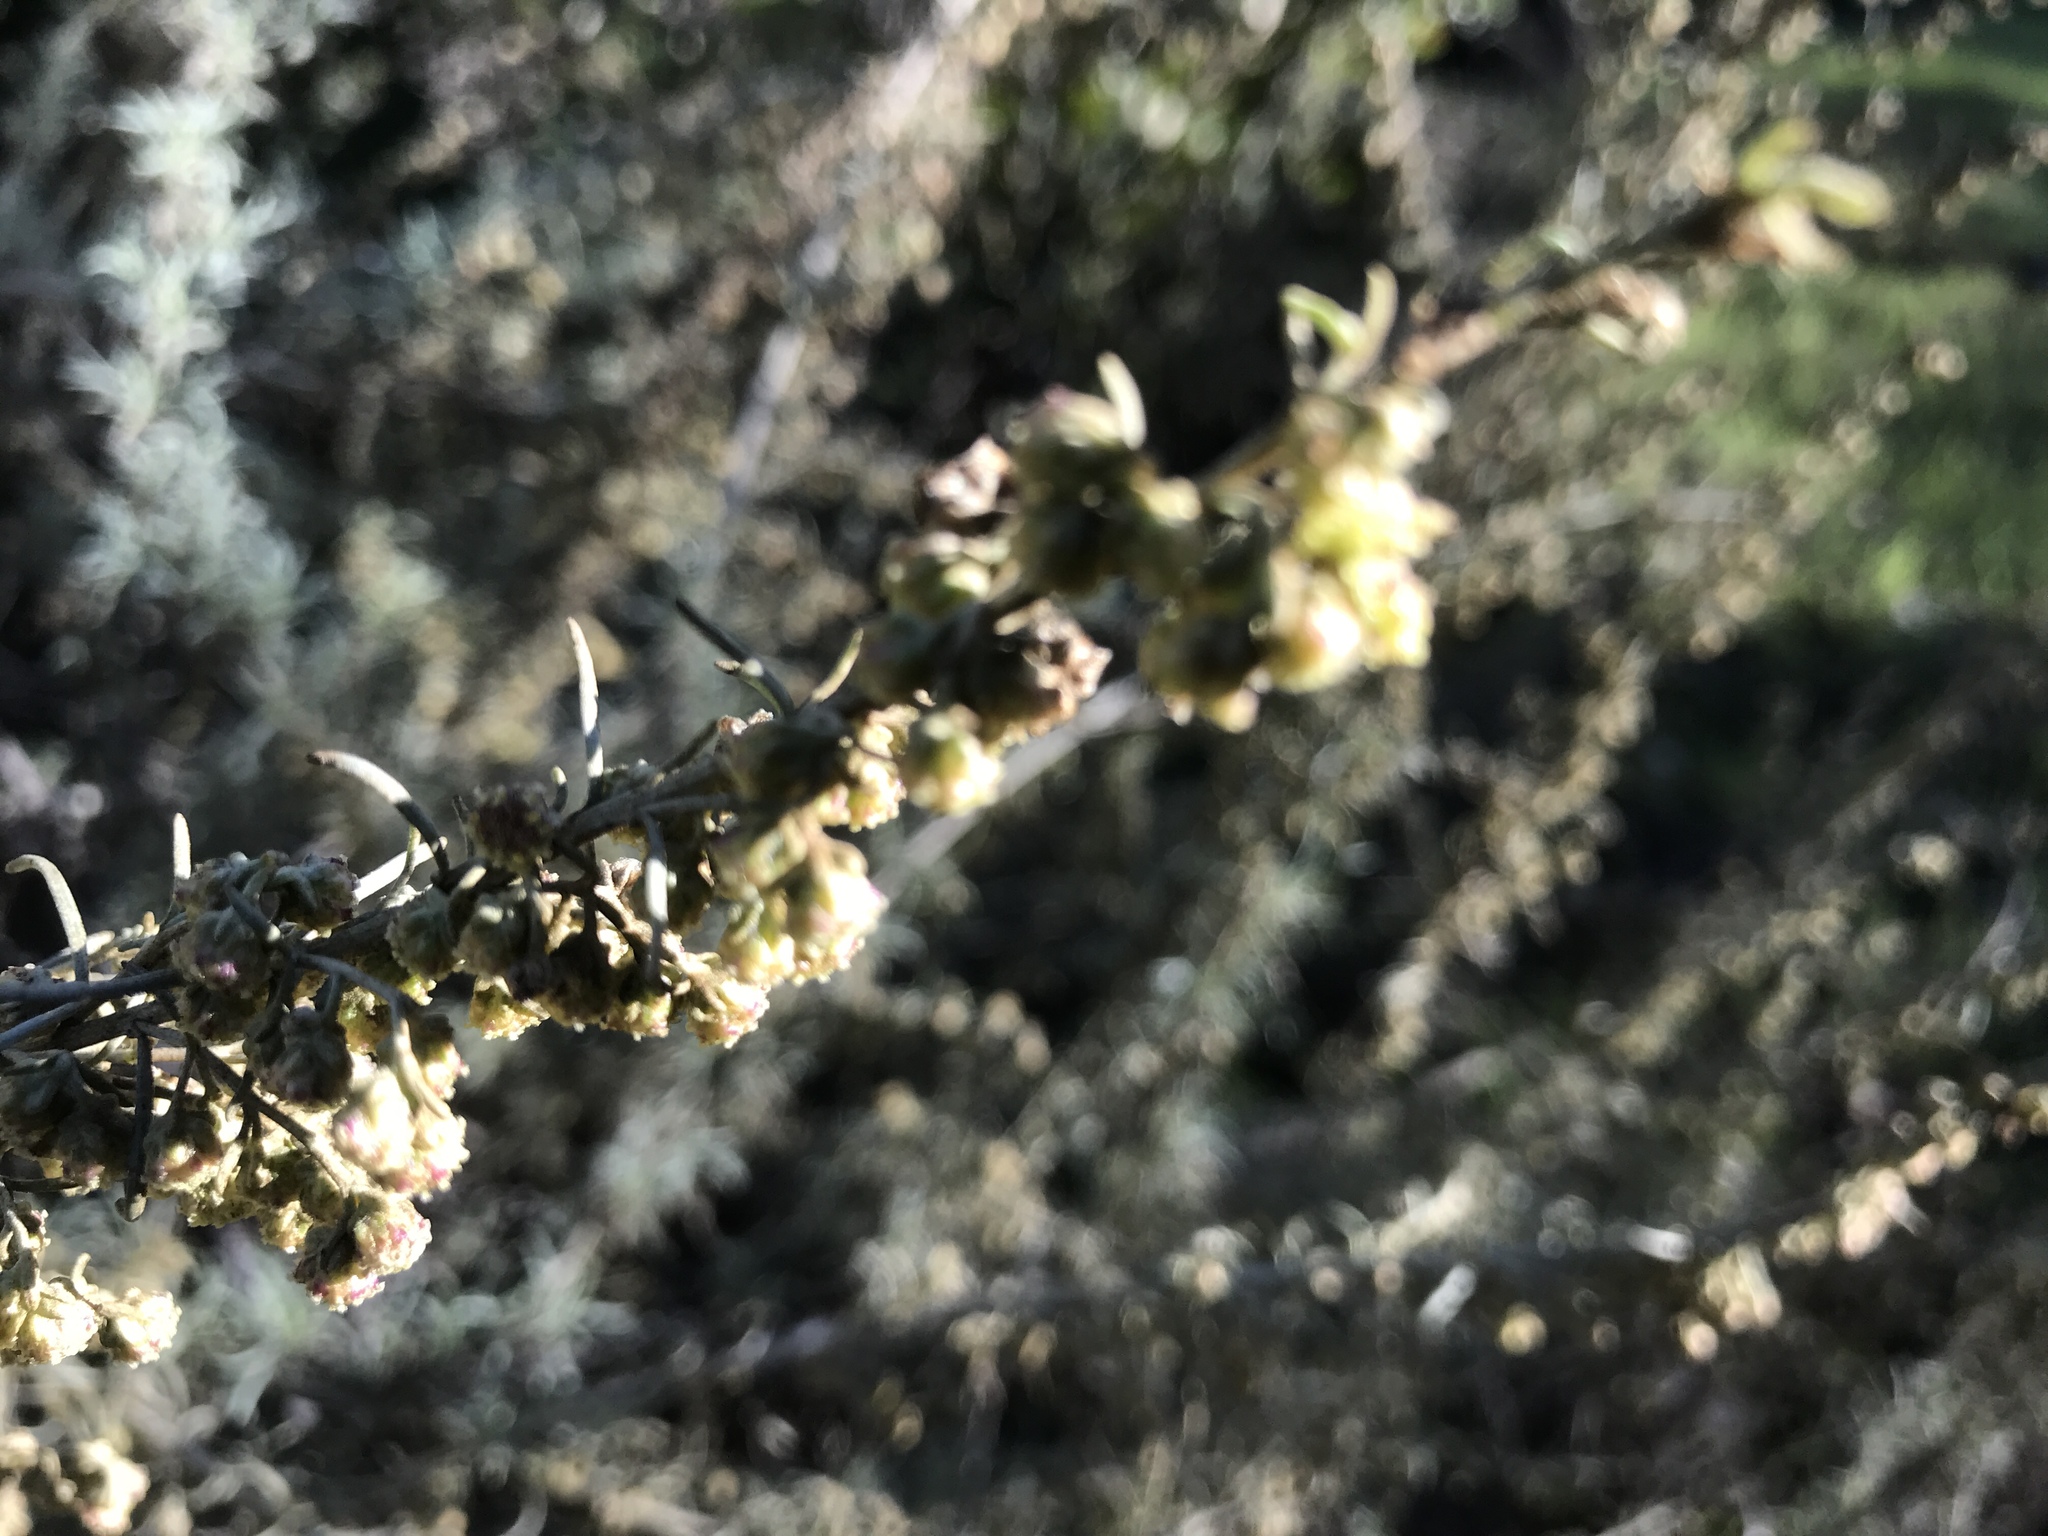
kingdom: Plantae
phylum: Tracheophyta
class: Magnoliopsida
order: Asterales
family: Asteraceae
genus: Artemisia
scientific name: Artemisia californica
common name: California sagebrush
